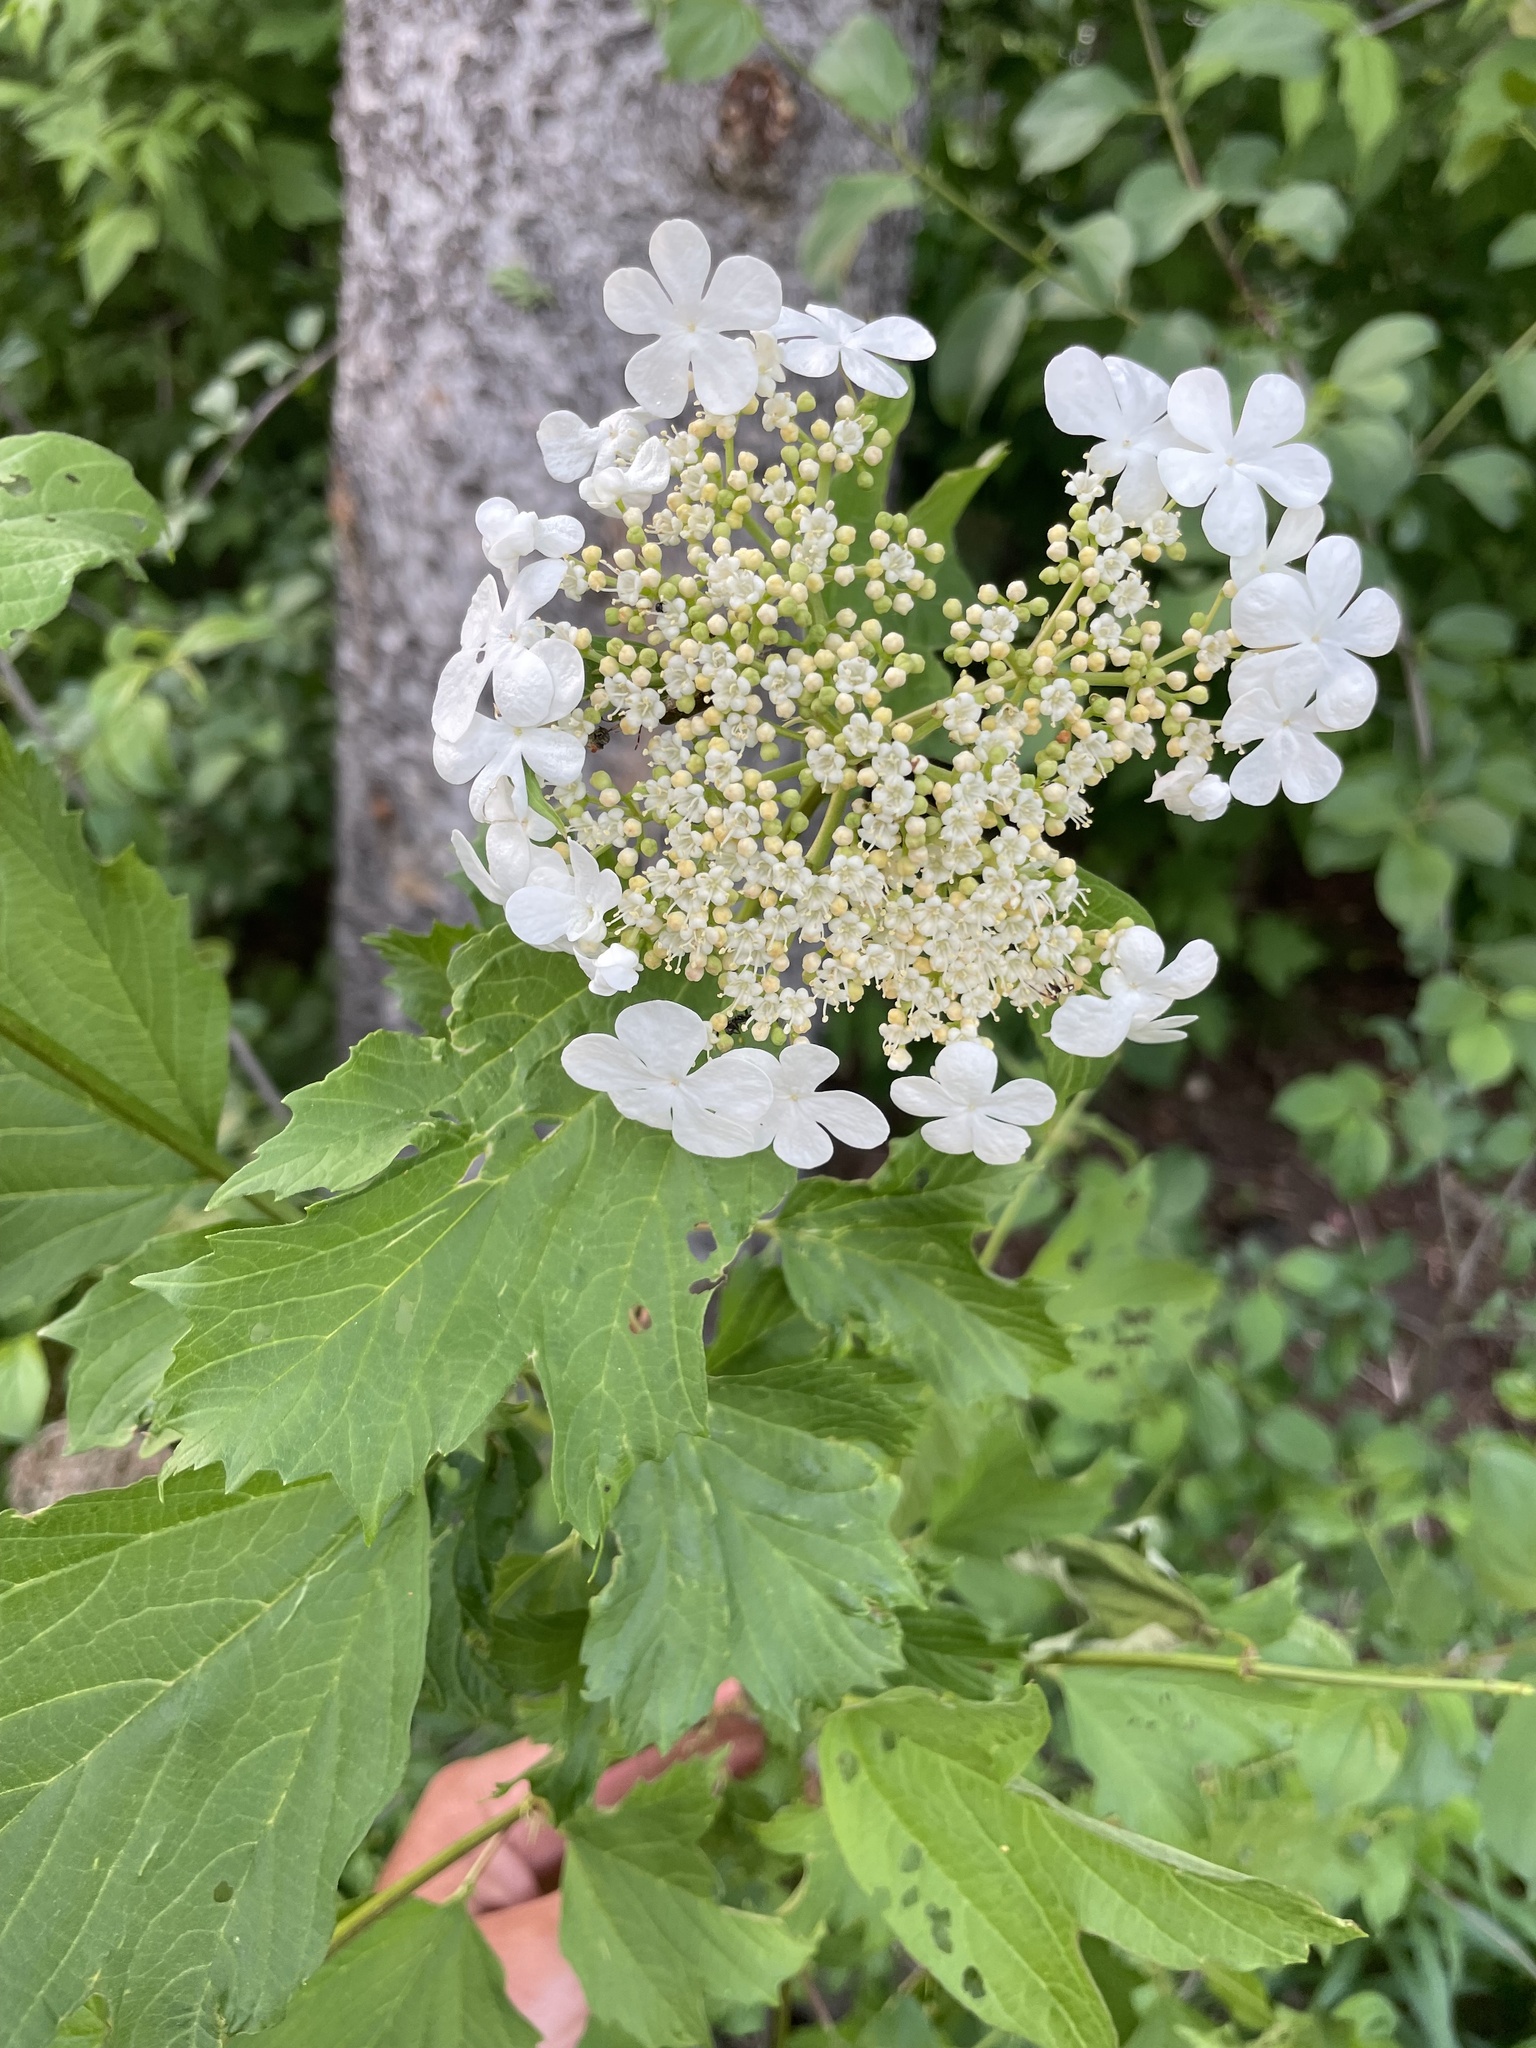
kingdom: Plantae
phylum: Tracheophyta
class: Magnoliopsida
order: Dipsacales
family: Viburnaceae
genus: Viburnum
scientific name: Viburnum opulus
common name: Guelder-rose
